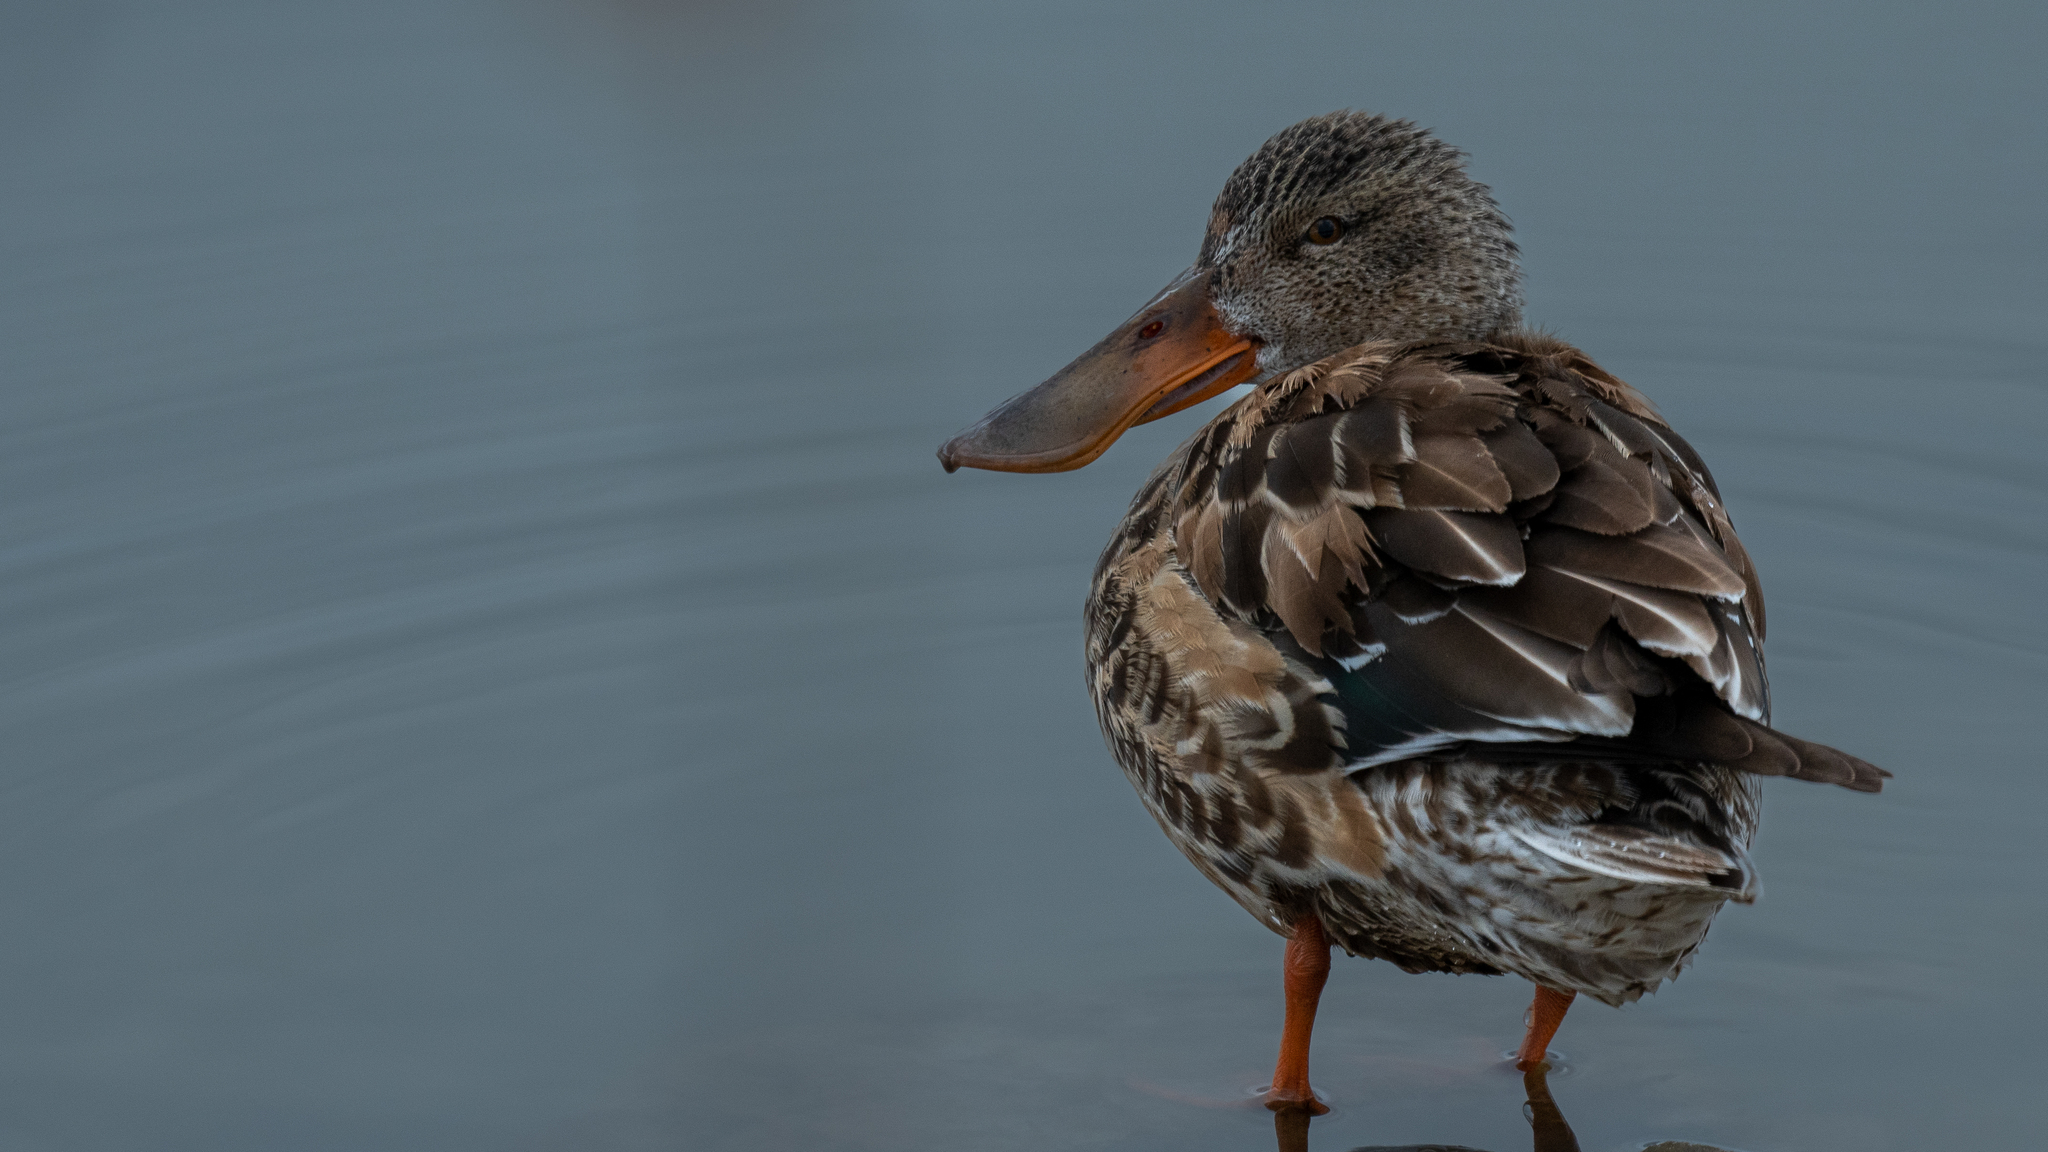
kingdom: Animalia
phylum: Chordata
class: Aves
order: Anseriformes
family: Anatidae
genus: Spatula
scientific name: Spatula clypeata
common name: Northern shoveler
